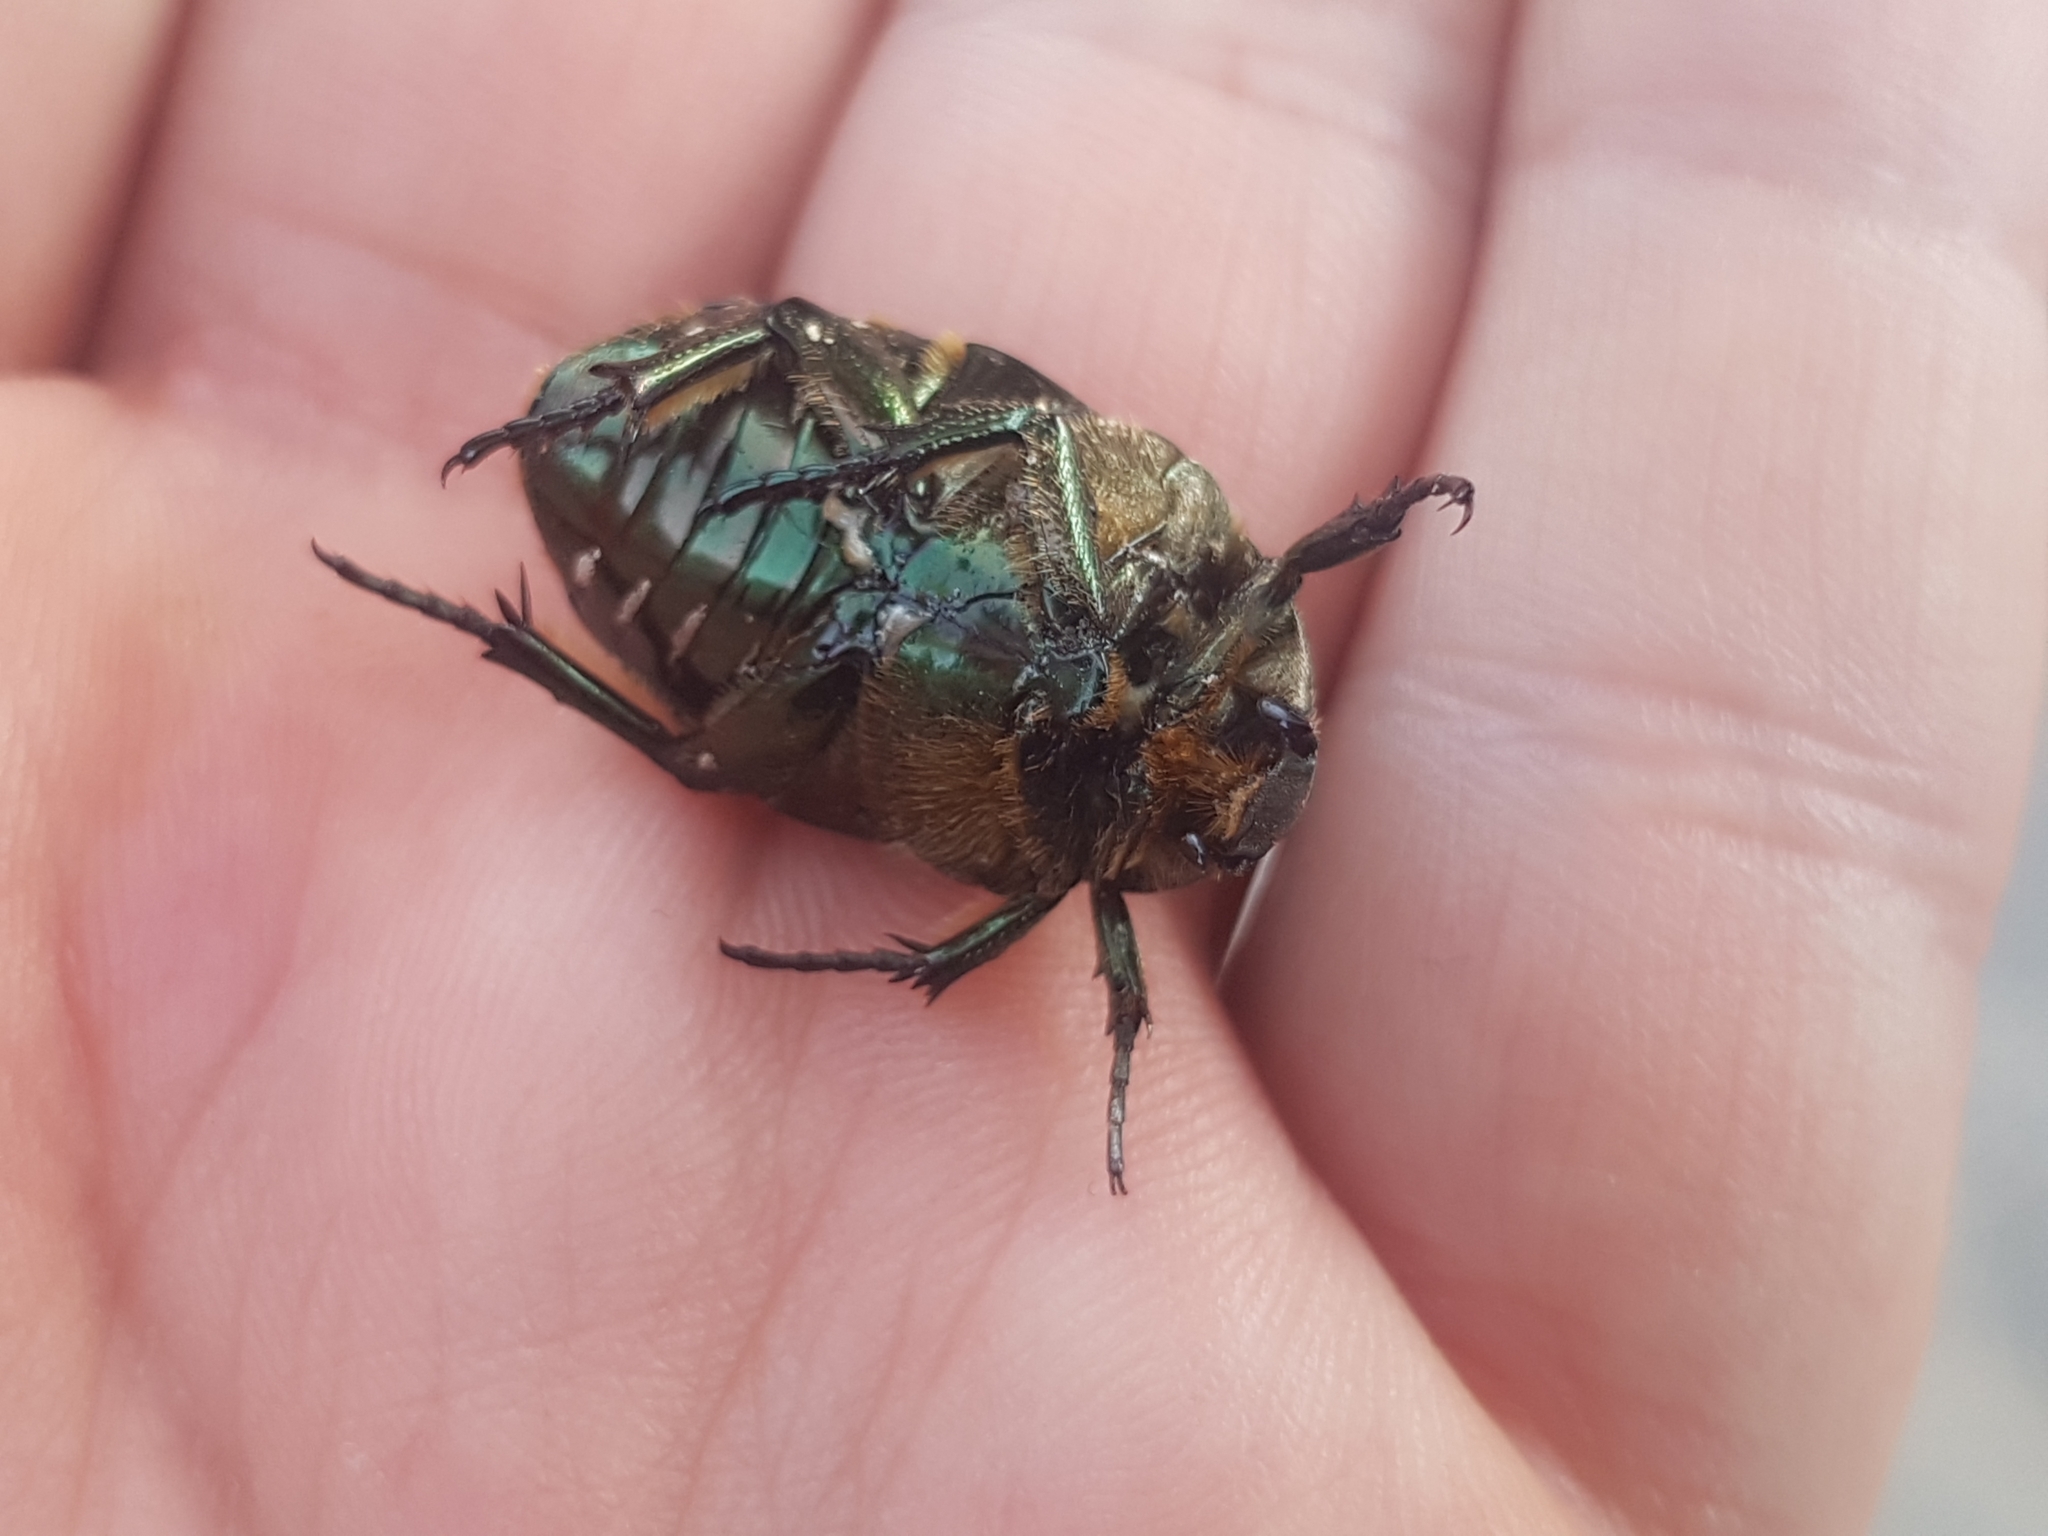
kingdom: Animalia
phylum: Arthropoda
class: Insecta
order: Coleoptera
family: Scarabaeidae
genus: Protaetia
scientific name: Protaetia marmorata
